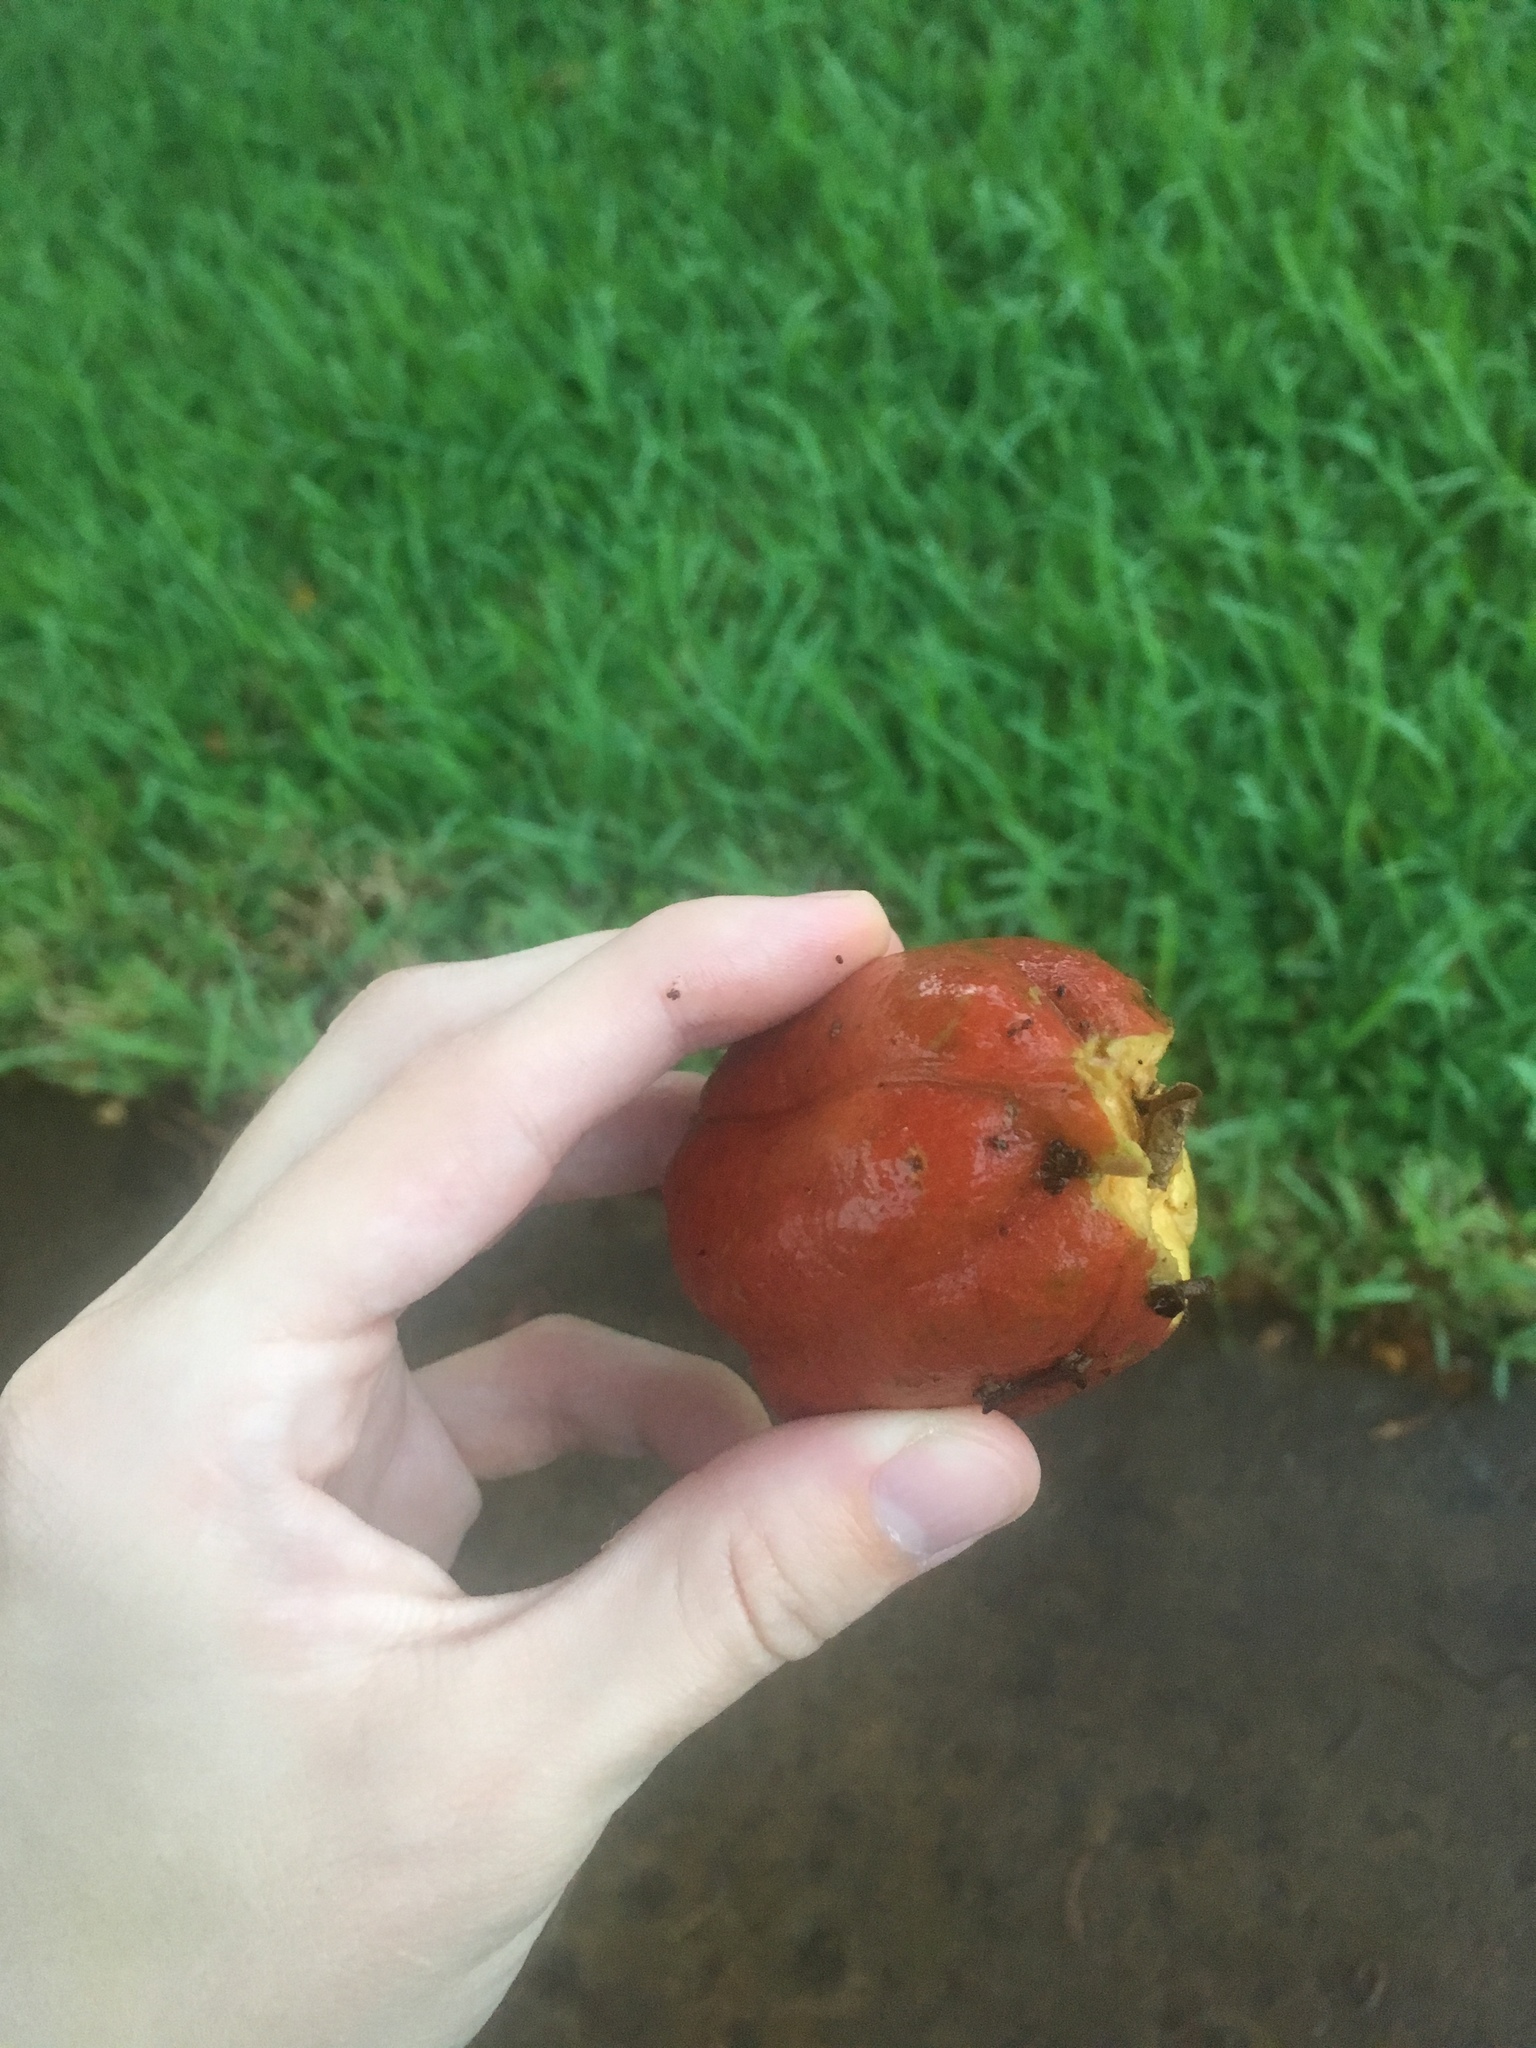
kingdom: Plantae
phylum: Tracheophyta
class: Magnoliopsida
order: Sapindales
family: Sapindaceae
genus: Blighia
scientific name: Blighia sapida
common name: Akee
